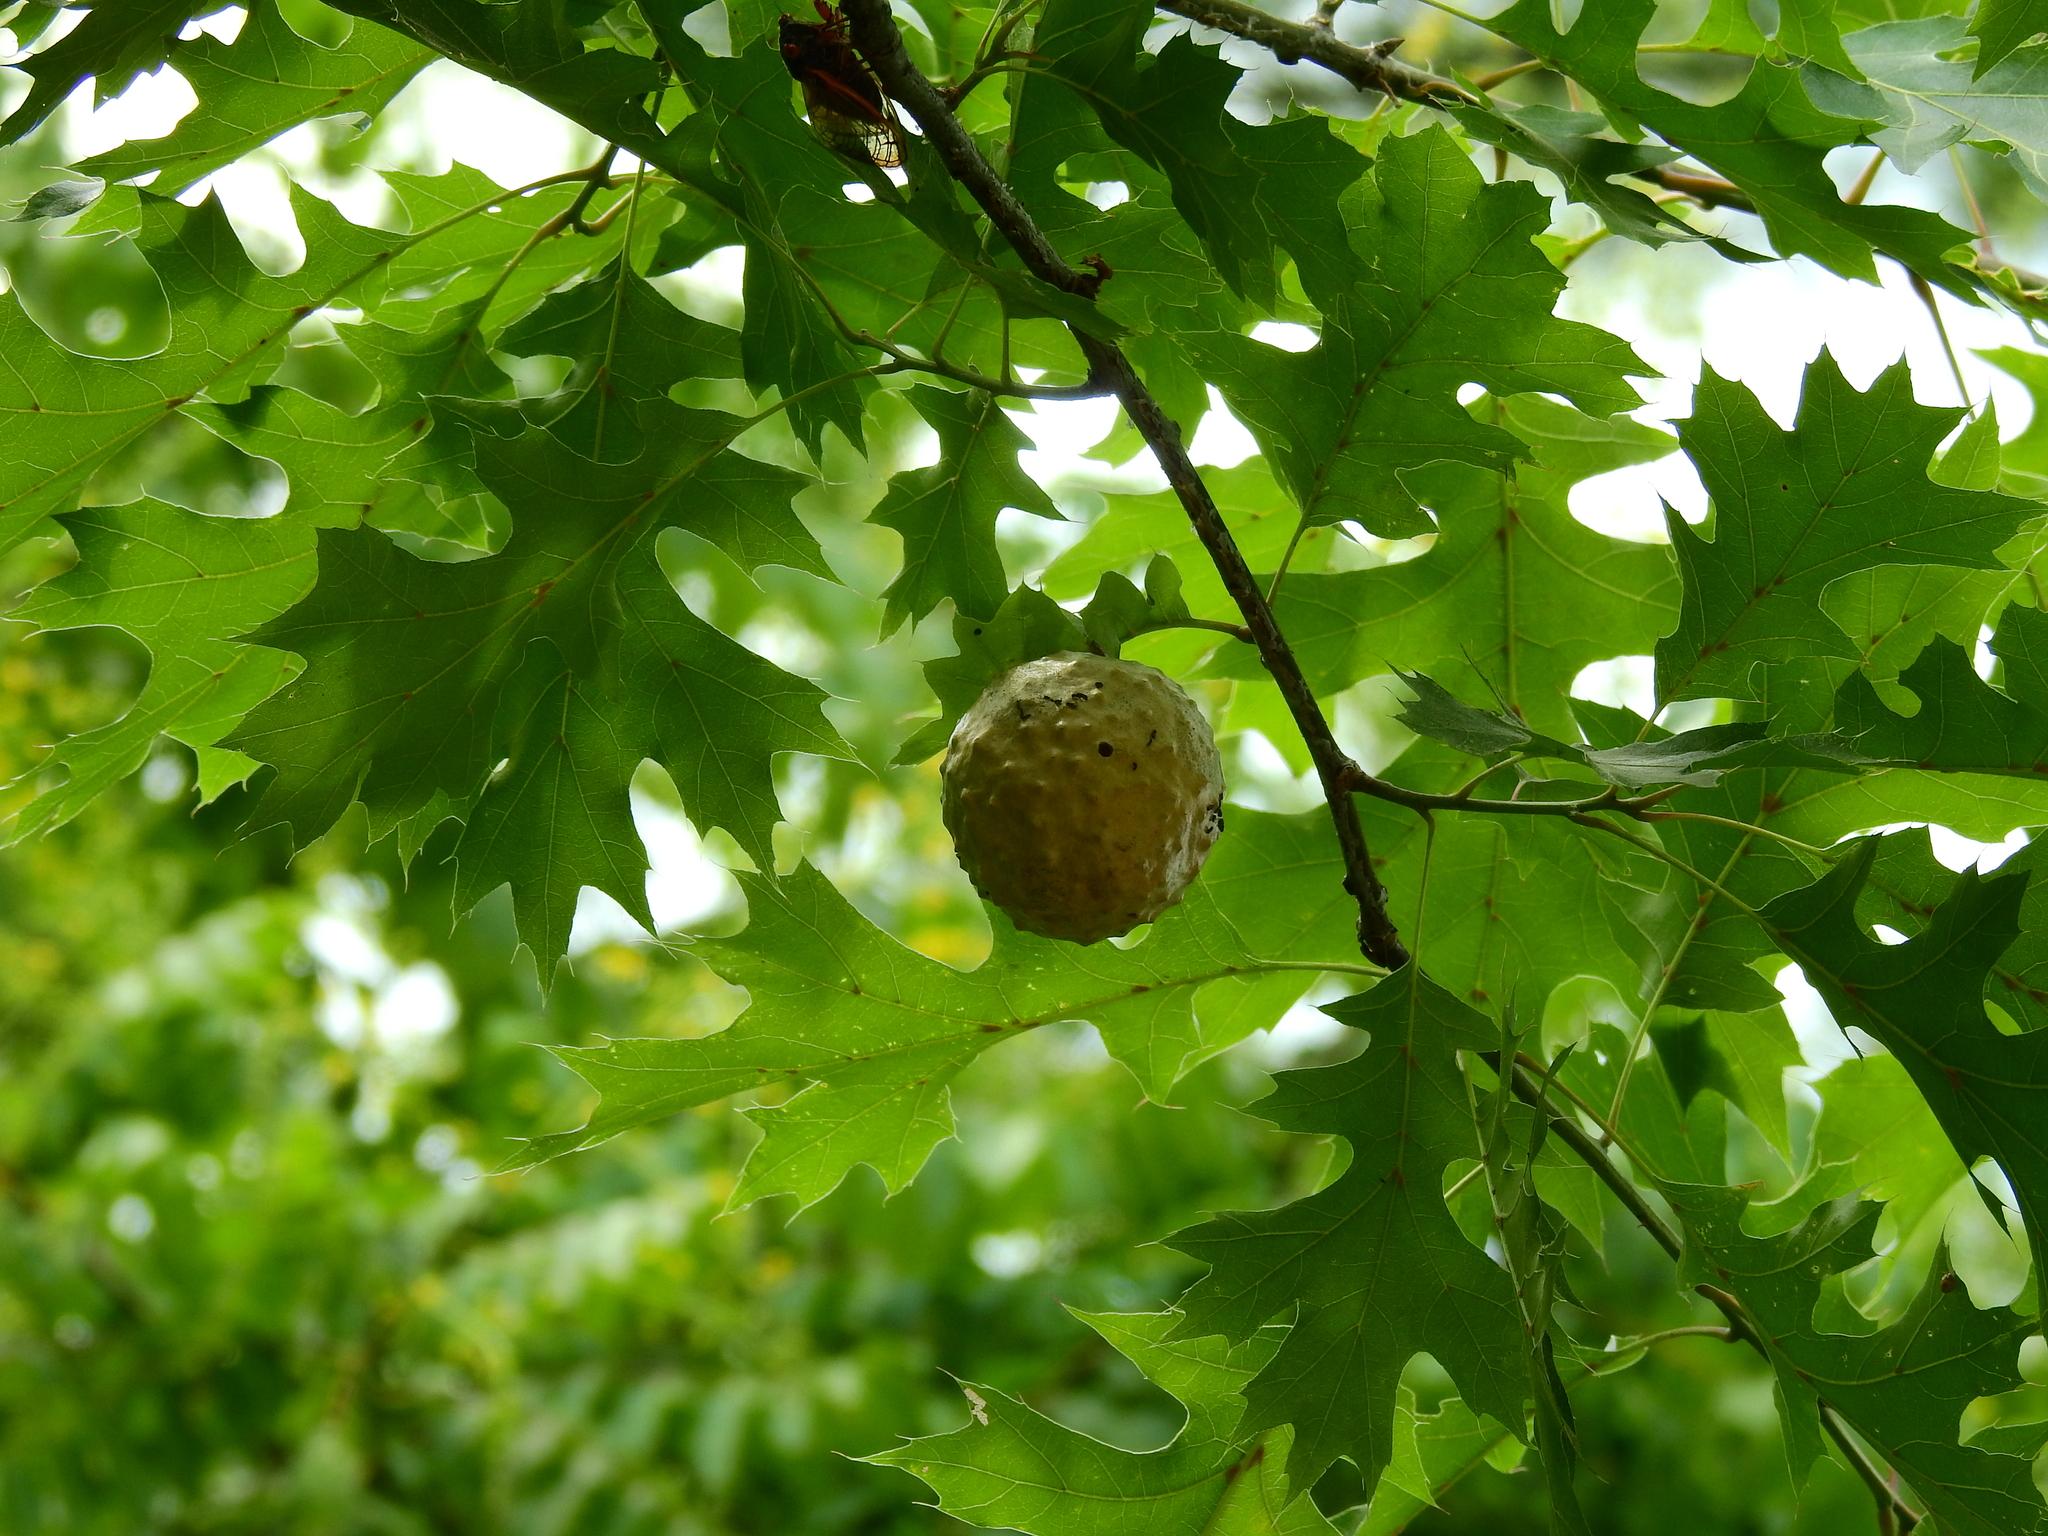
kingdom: Animalia
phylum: Arthropoda
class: Insecta
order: Hymenoptera
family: Cynipidae
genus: Amphibolips
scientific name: Amphibolips
